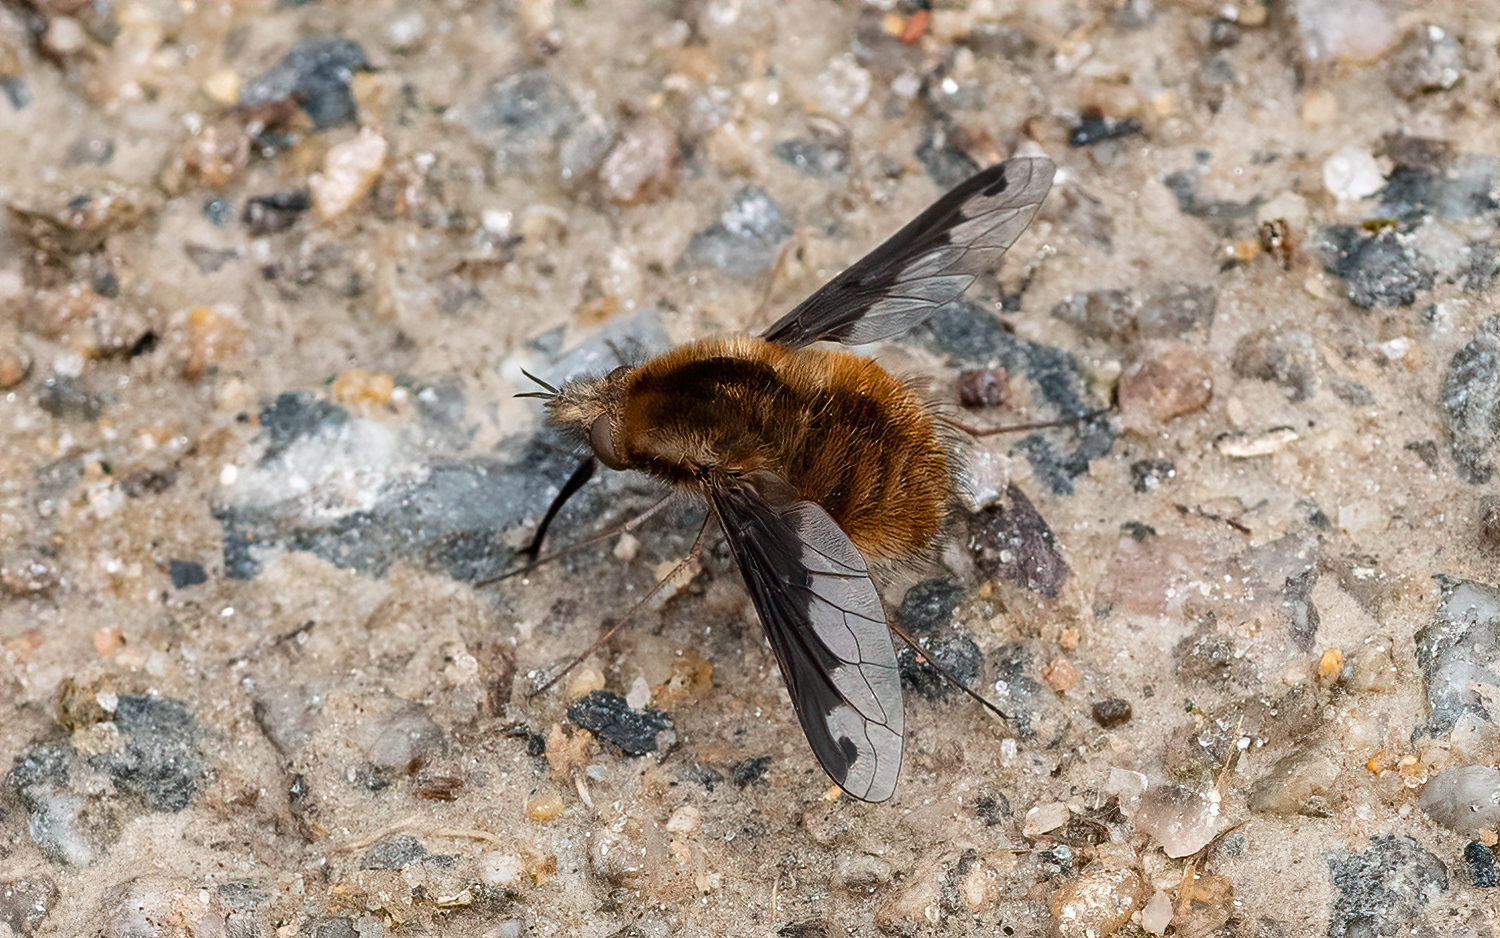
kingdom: Animalia
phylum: Arthropoda
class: Insecta
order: Diptera
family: Bombyliidae
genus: Bombylius
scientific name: Bombylius major
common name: Bee fly
